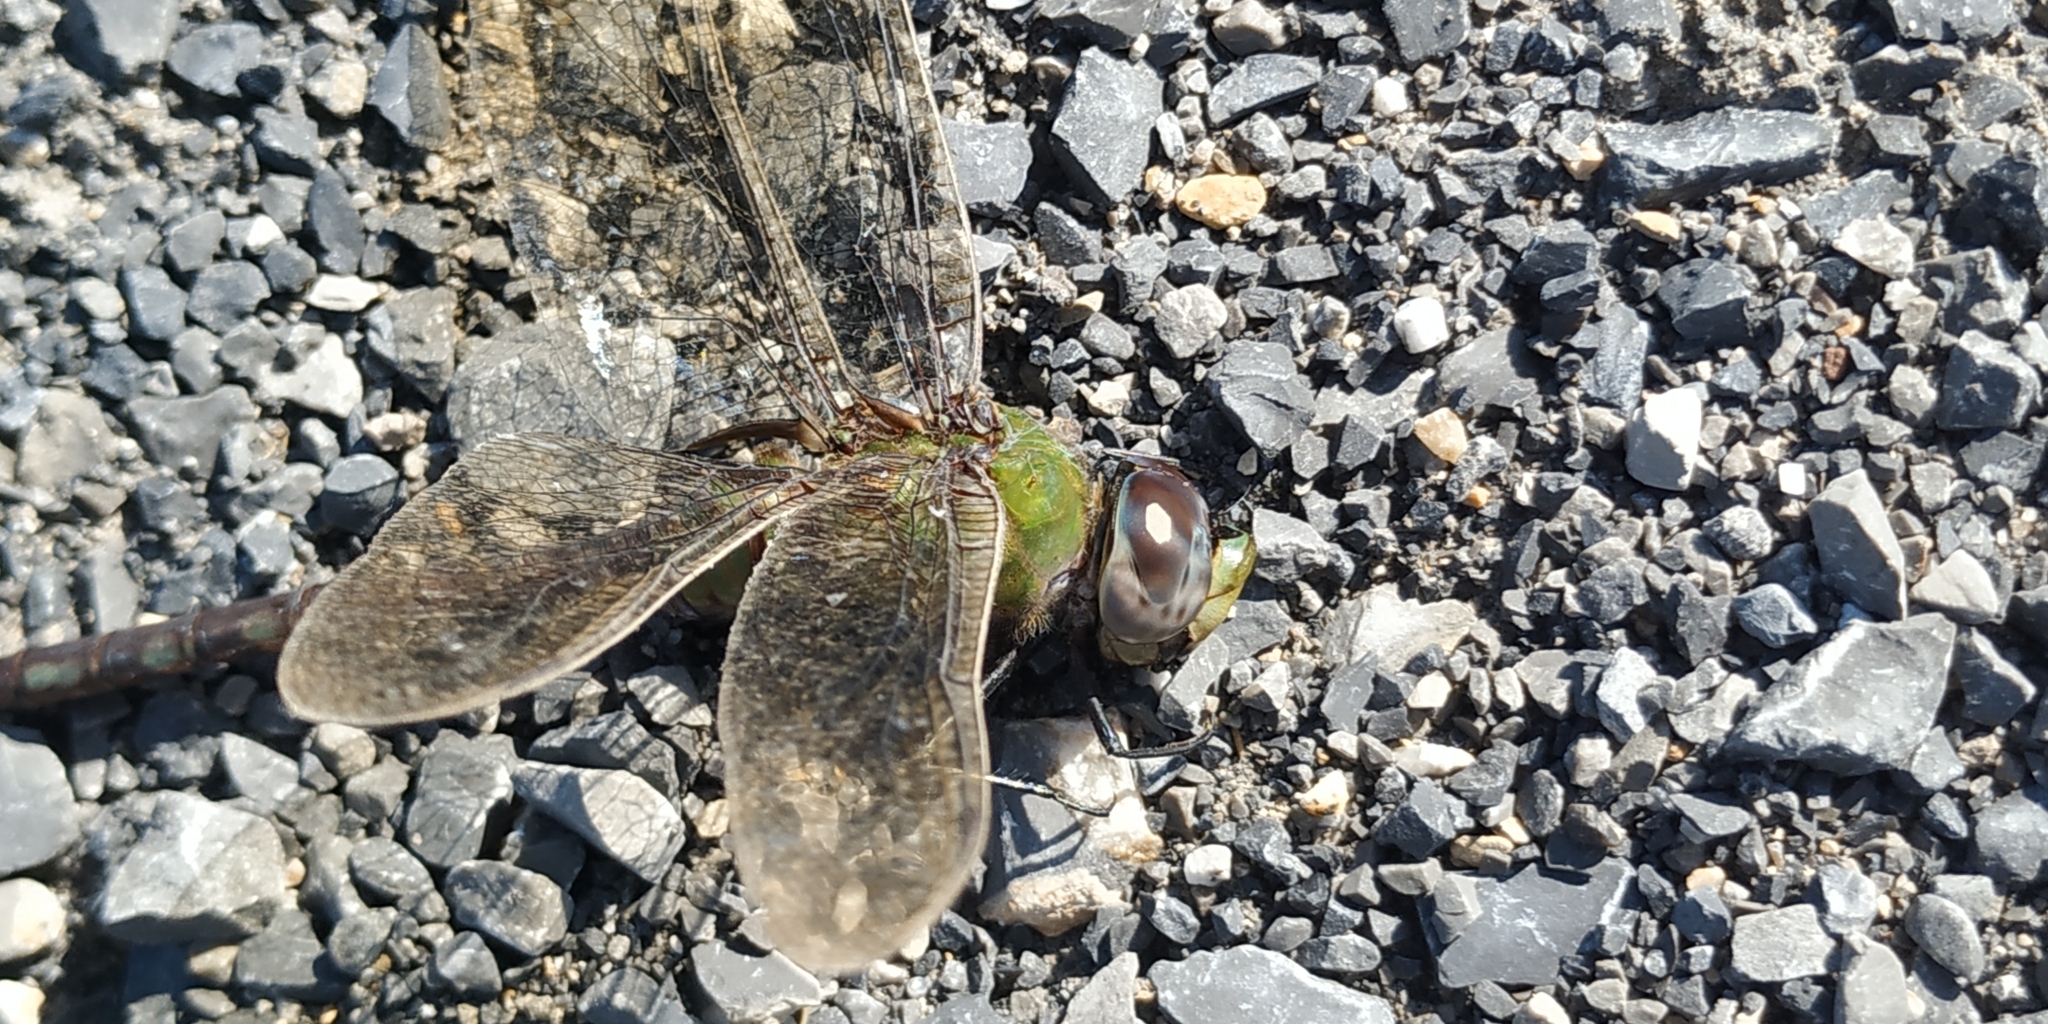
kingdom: Animalia
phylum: Arthropoda
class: Insecta
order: Odonata
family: Aeshnidae
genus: Anax
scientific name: Anax amazili
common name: Amazon darner
